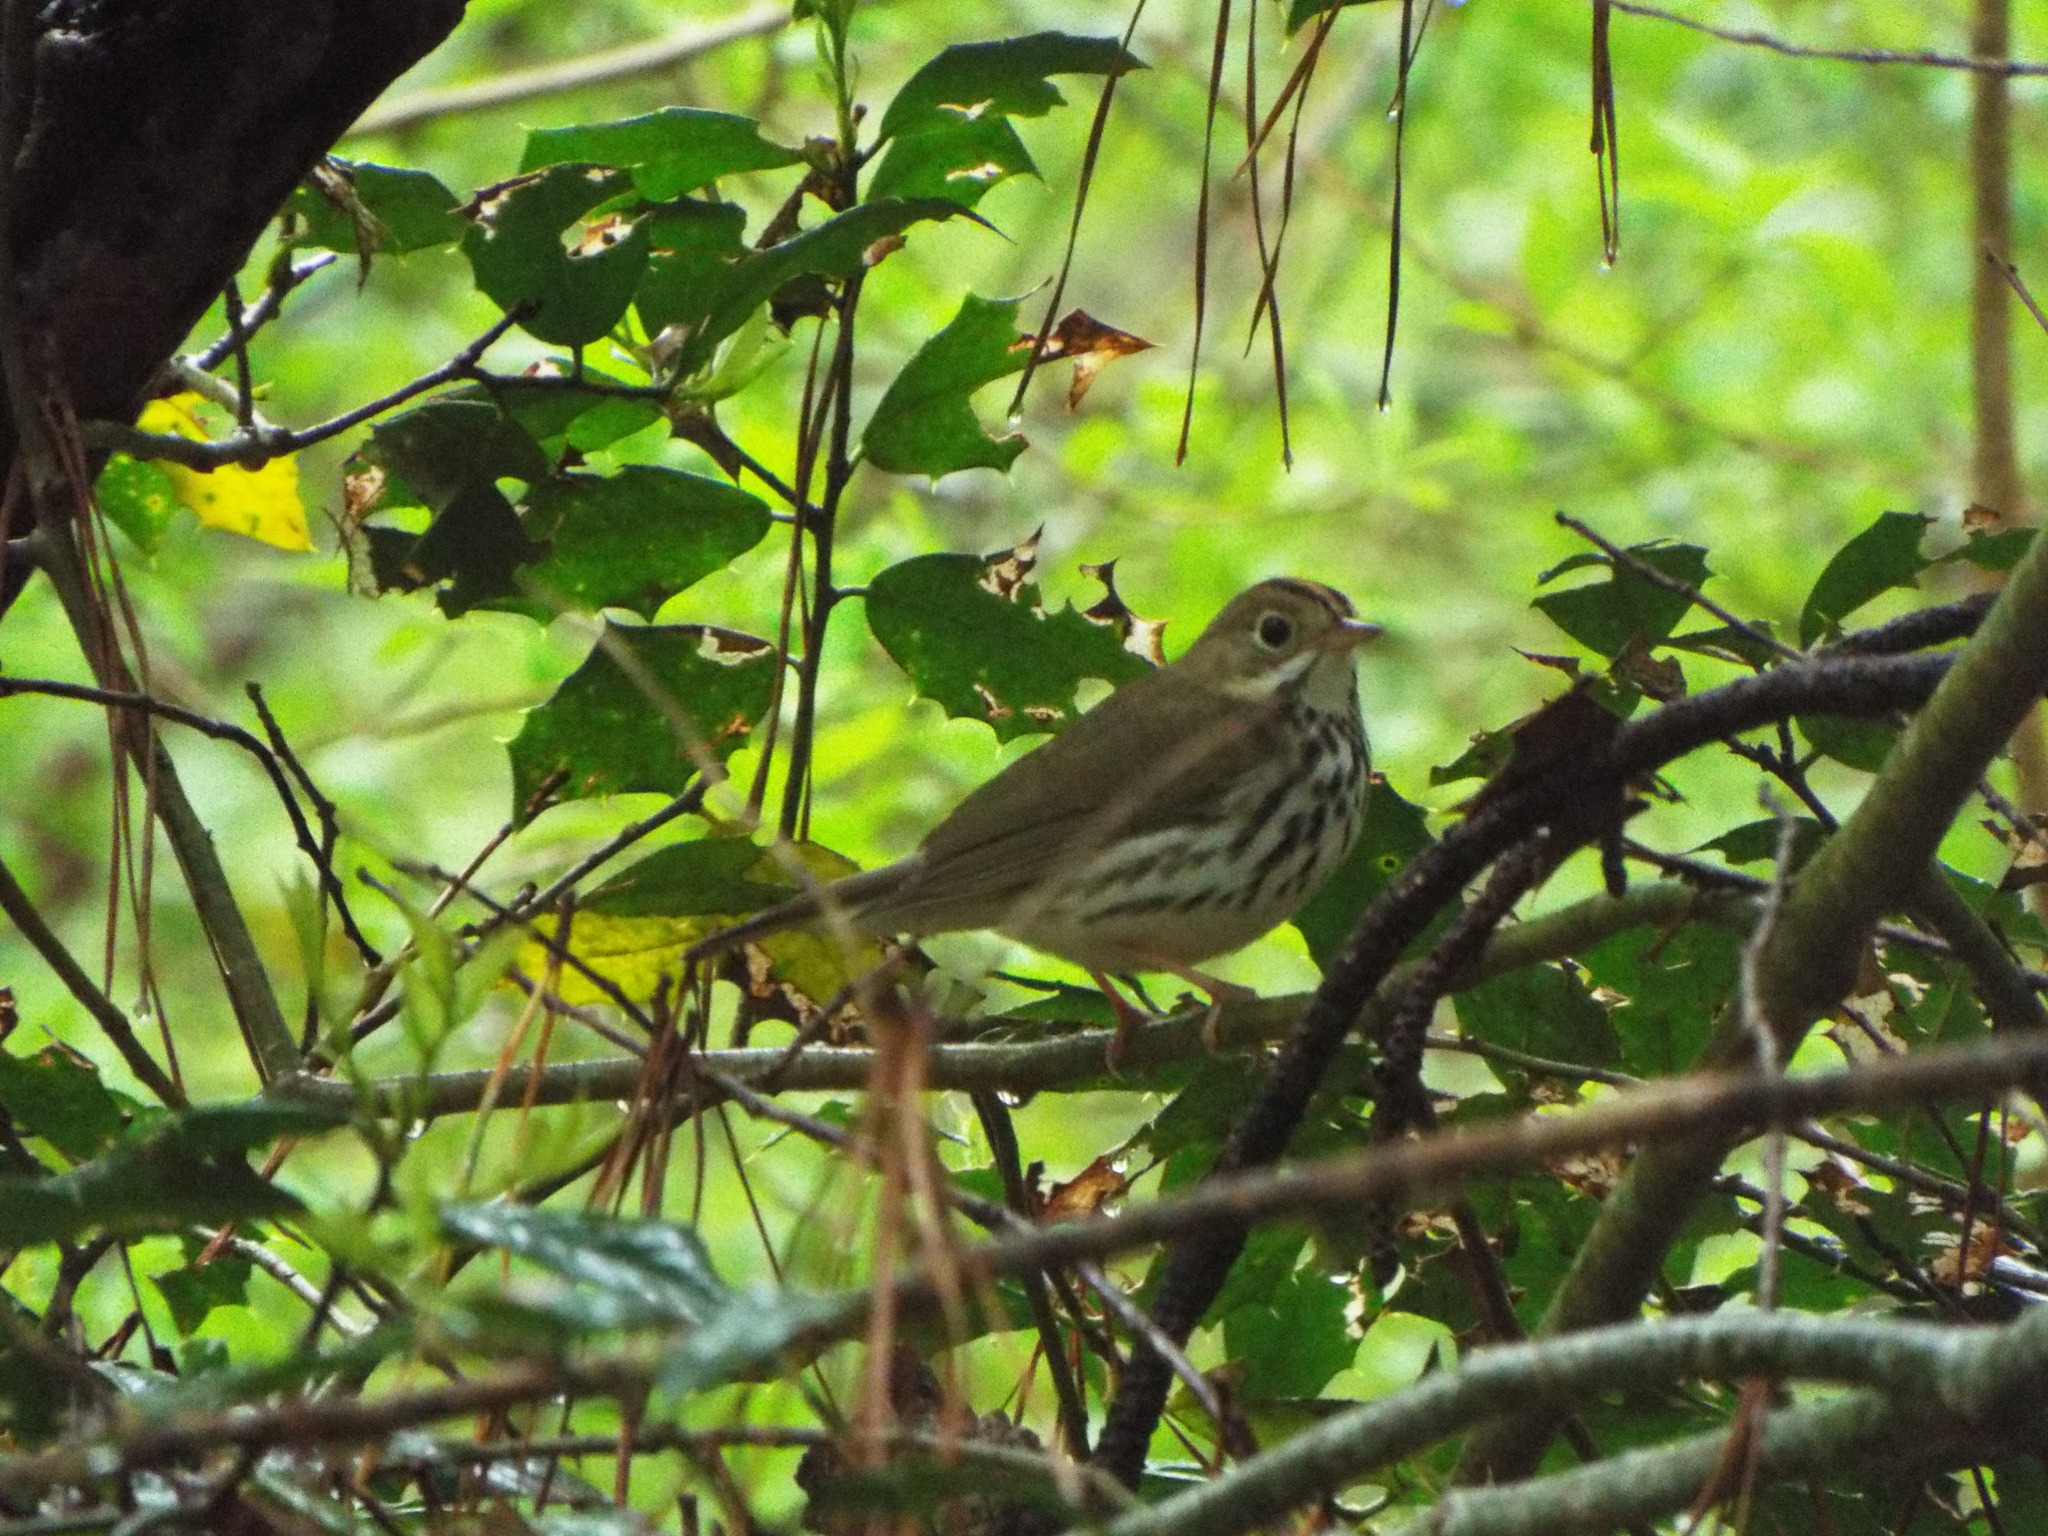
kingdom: Animalia
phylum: Chordata
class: Aves
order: Passeriformes
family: Parulidae
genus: Seiurus
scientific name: Seiurus aurocapilla
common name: Ovenbird
